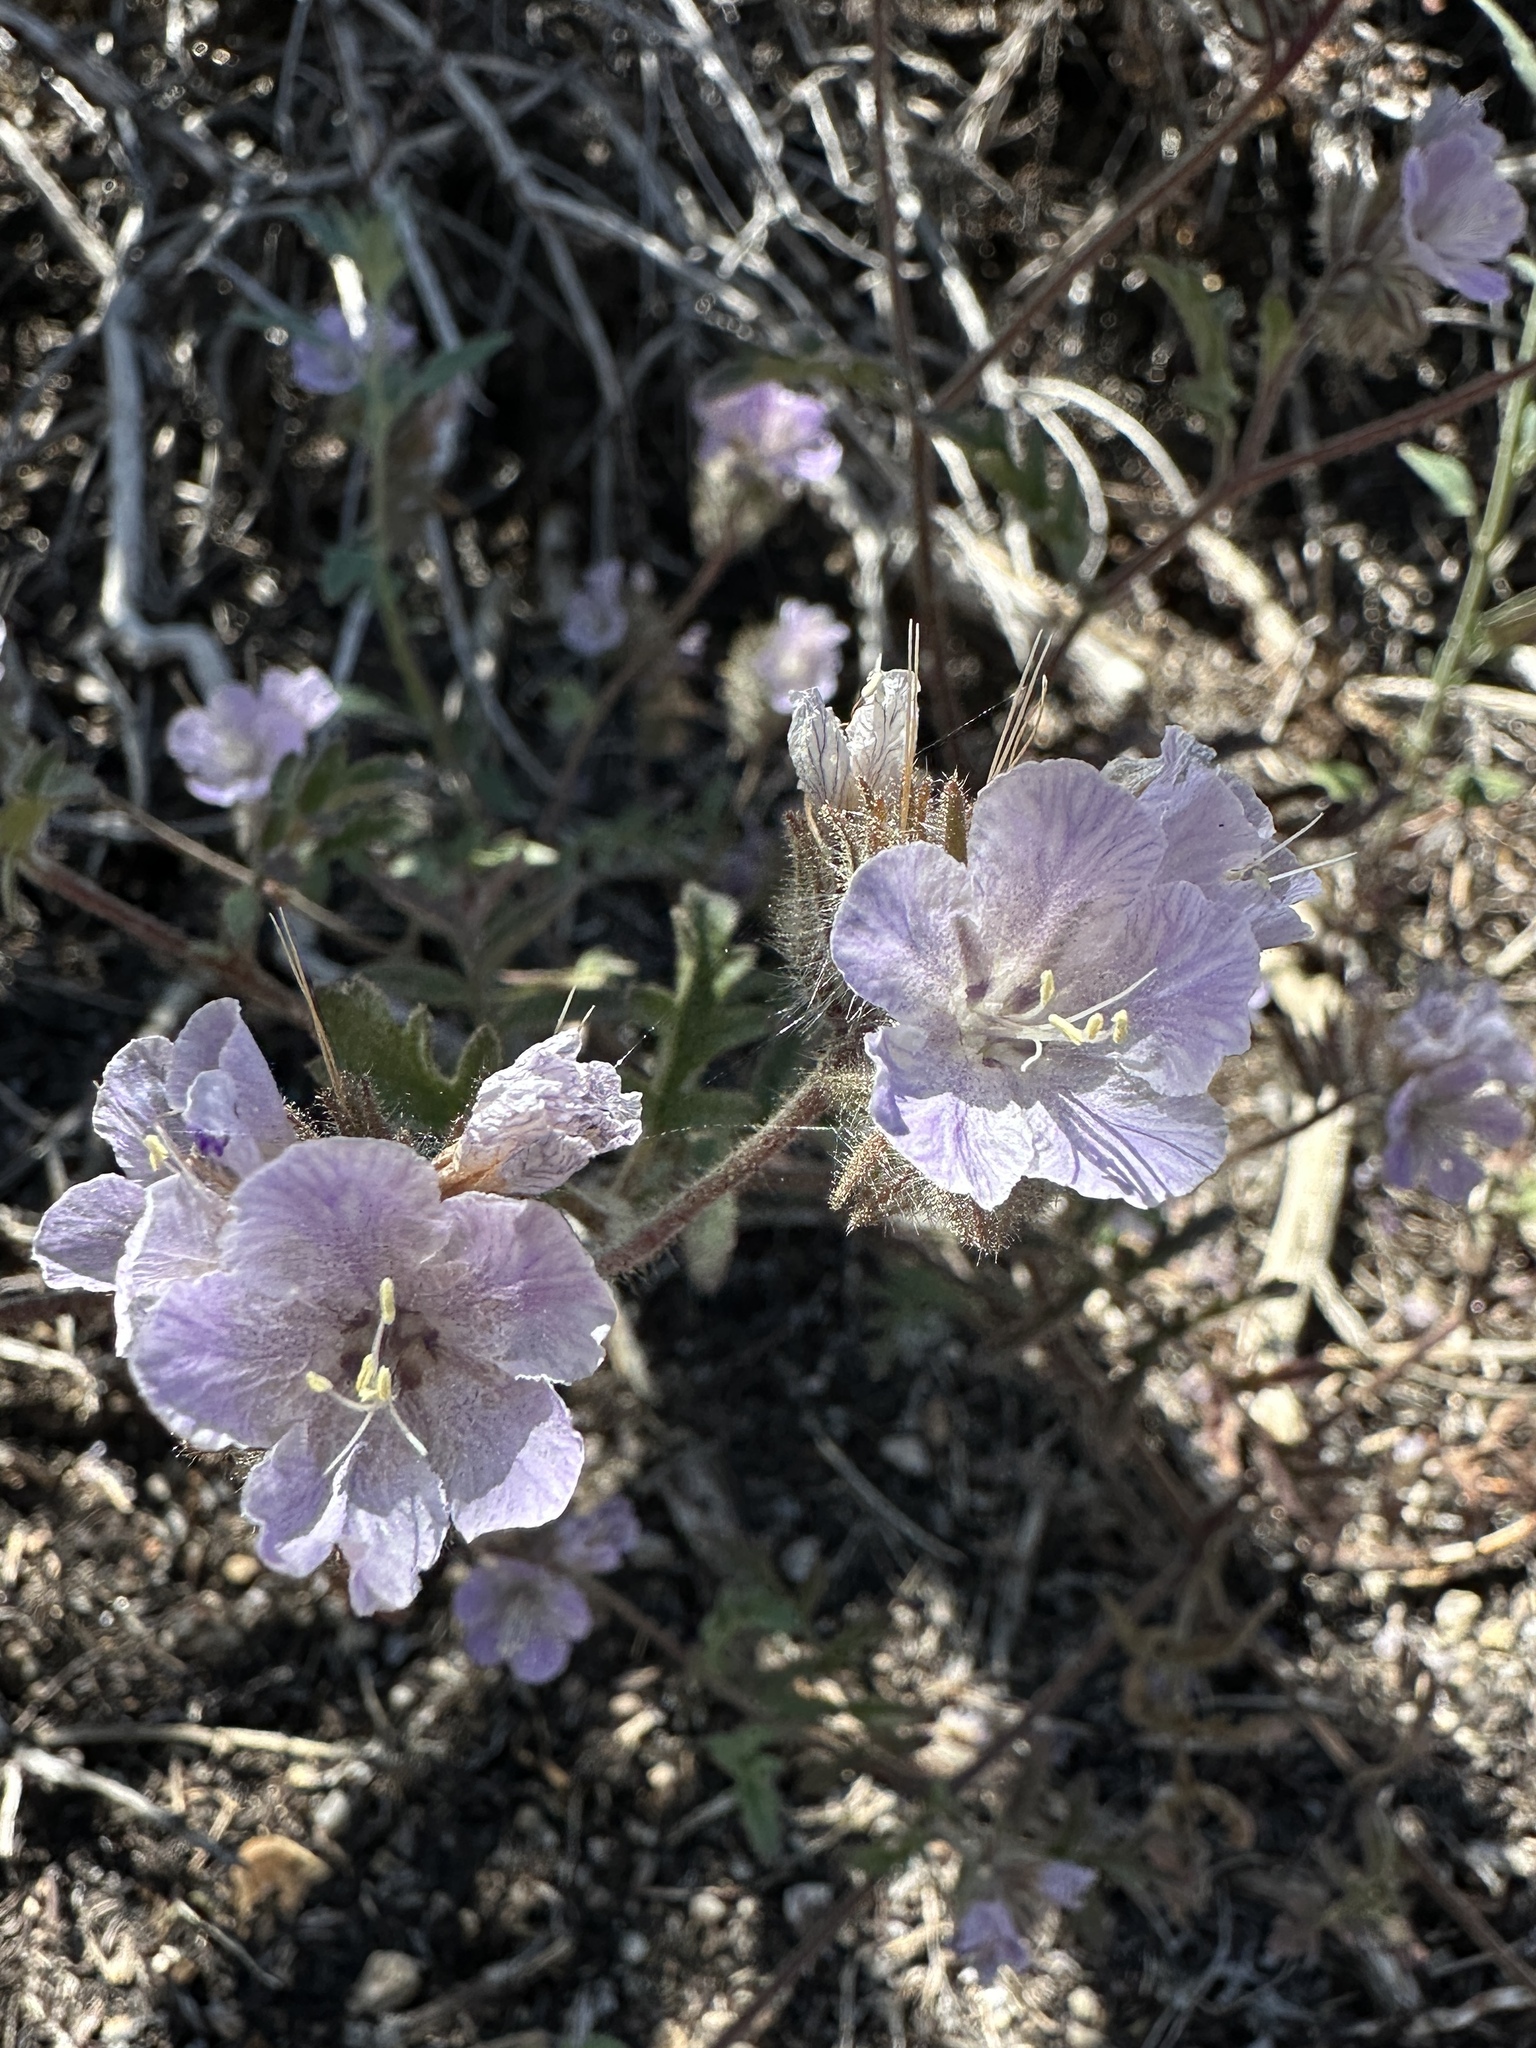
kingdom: Plantae
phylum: Tracheophyta
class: Magnoliopsida
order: Boraginales
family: Hydrophyllaceae
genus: Phacelia
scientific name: Phacelia vallis-mortae
